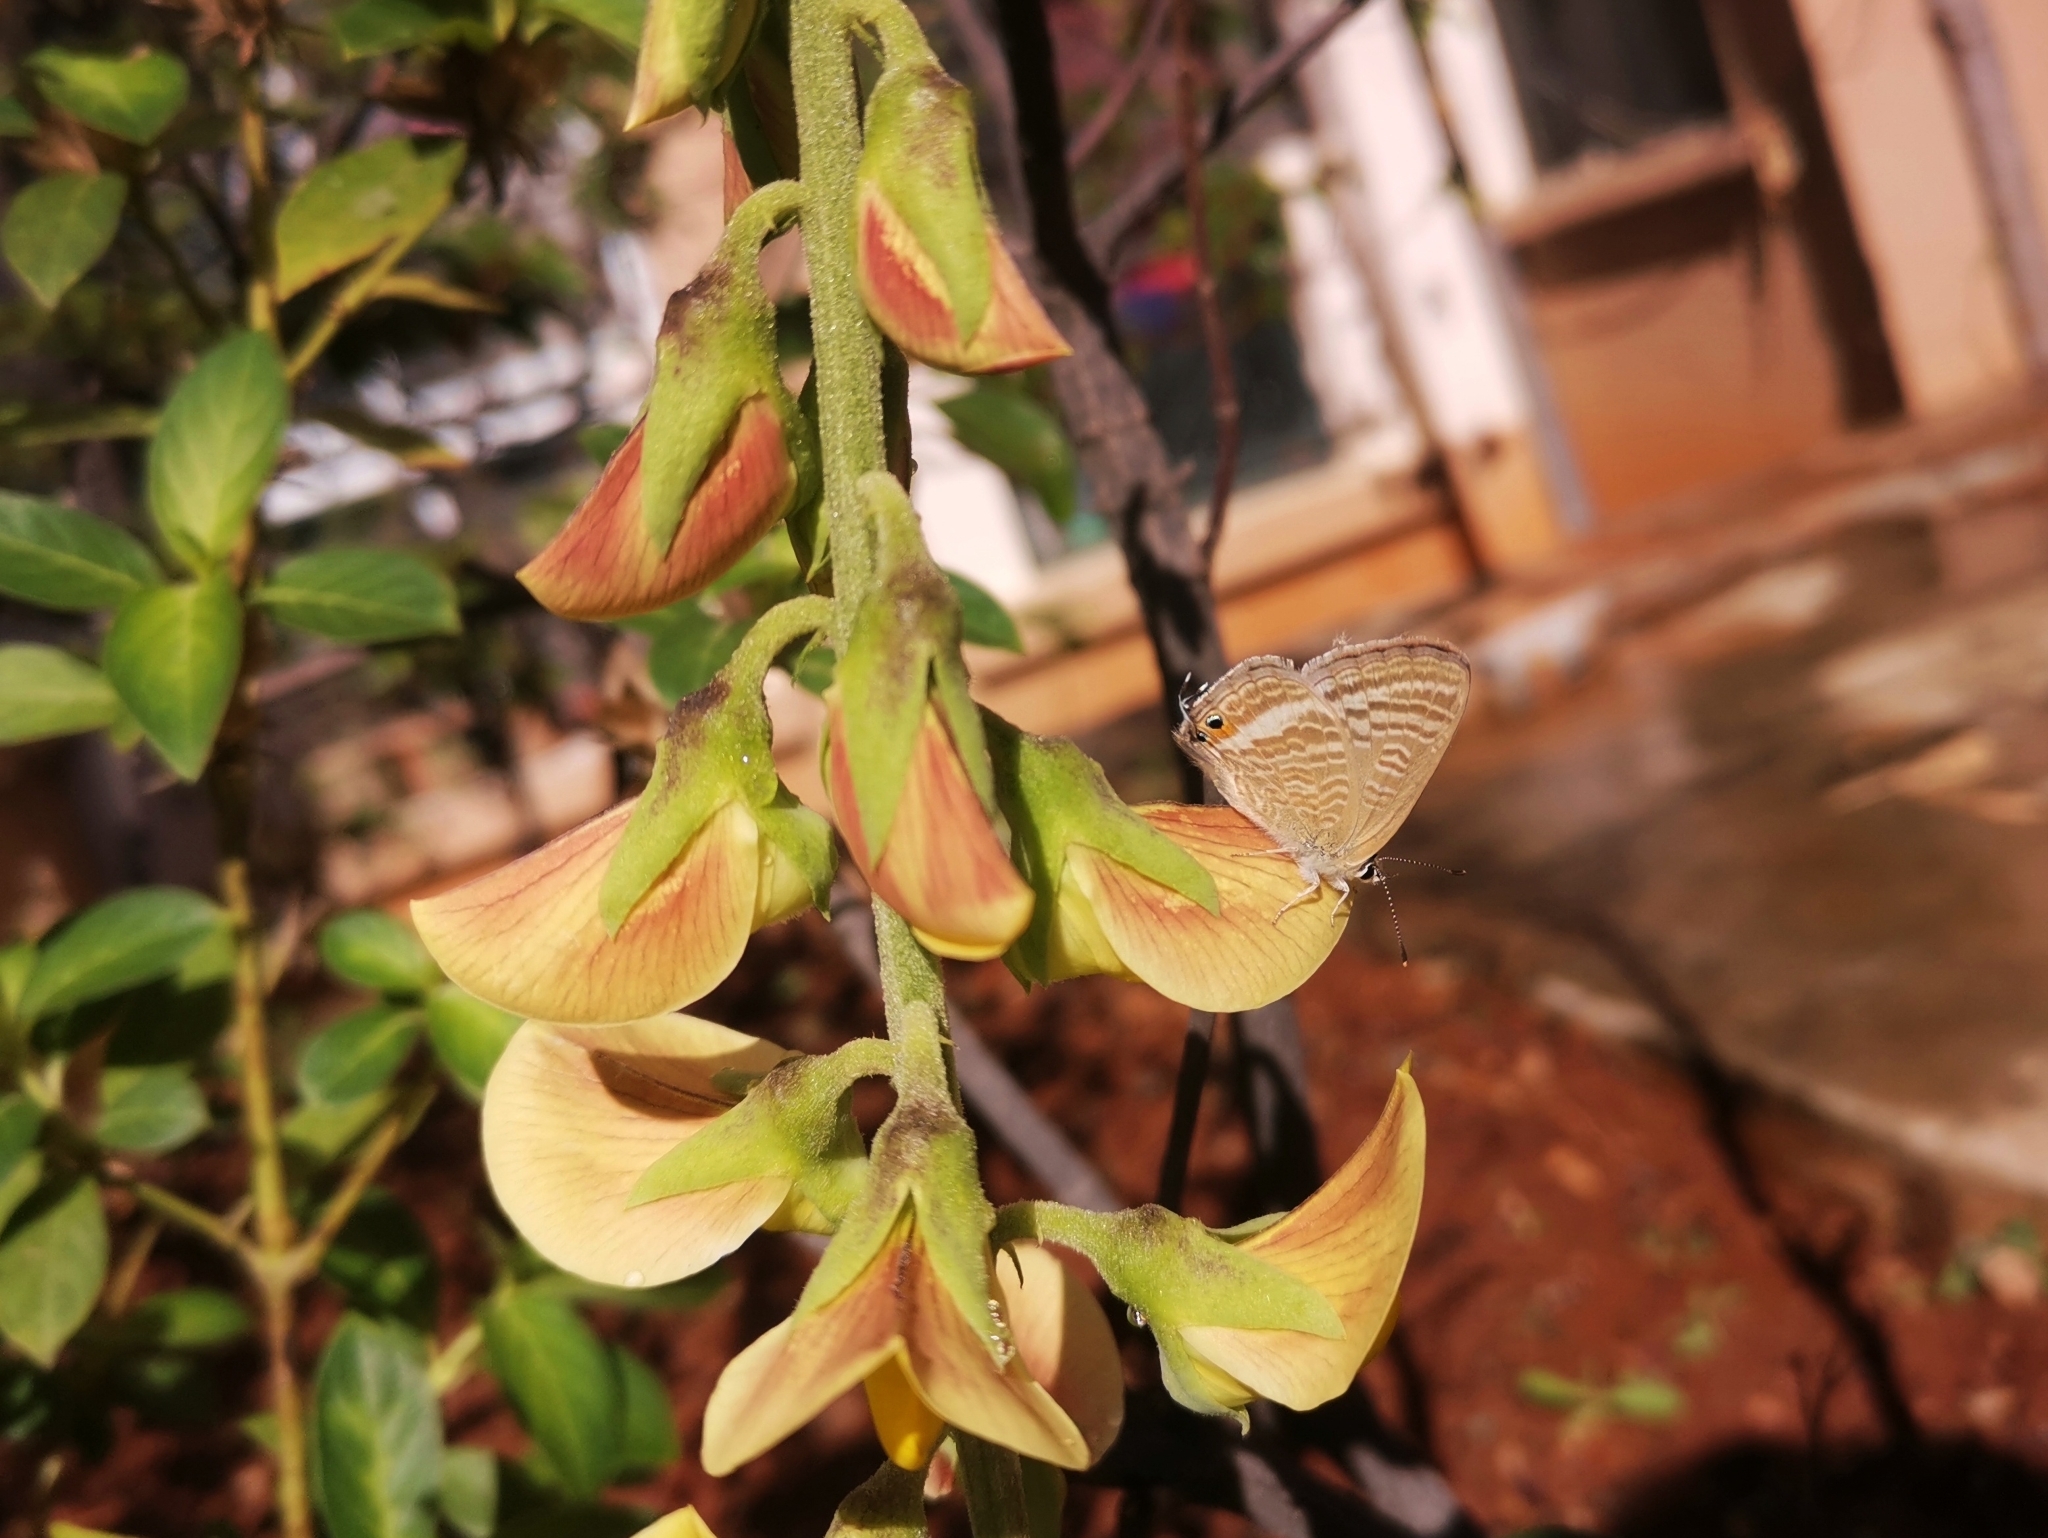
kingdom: Animalia
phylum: Arthropoda
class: Insecta
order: Lepidoptera
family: Lycaenidae
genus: Lampides
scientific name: Lampides boeticus
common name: Long-tailed blue
